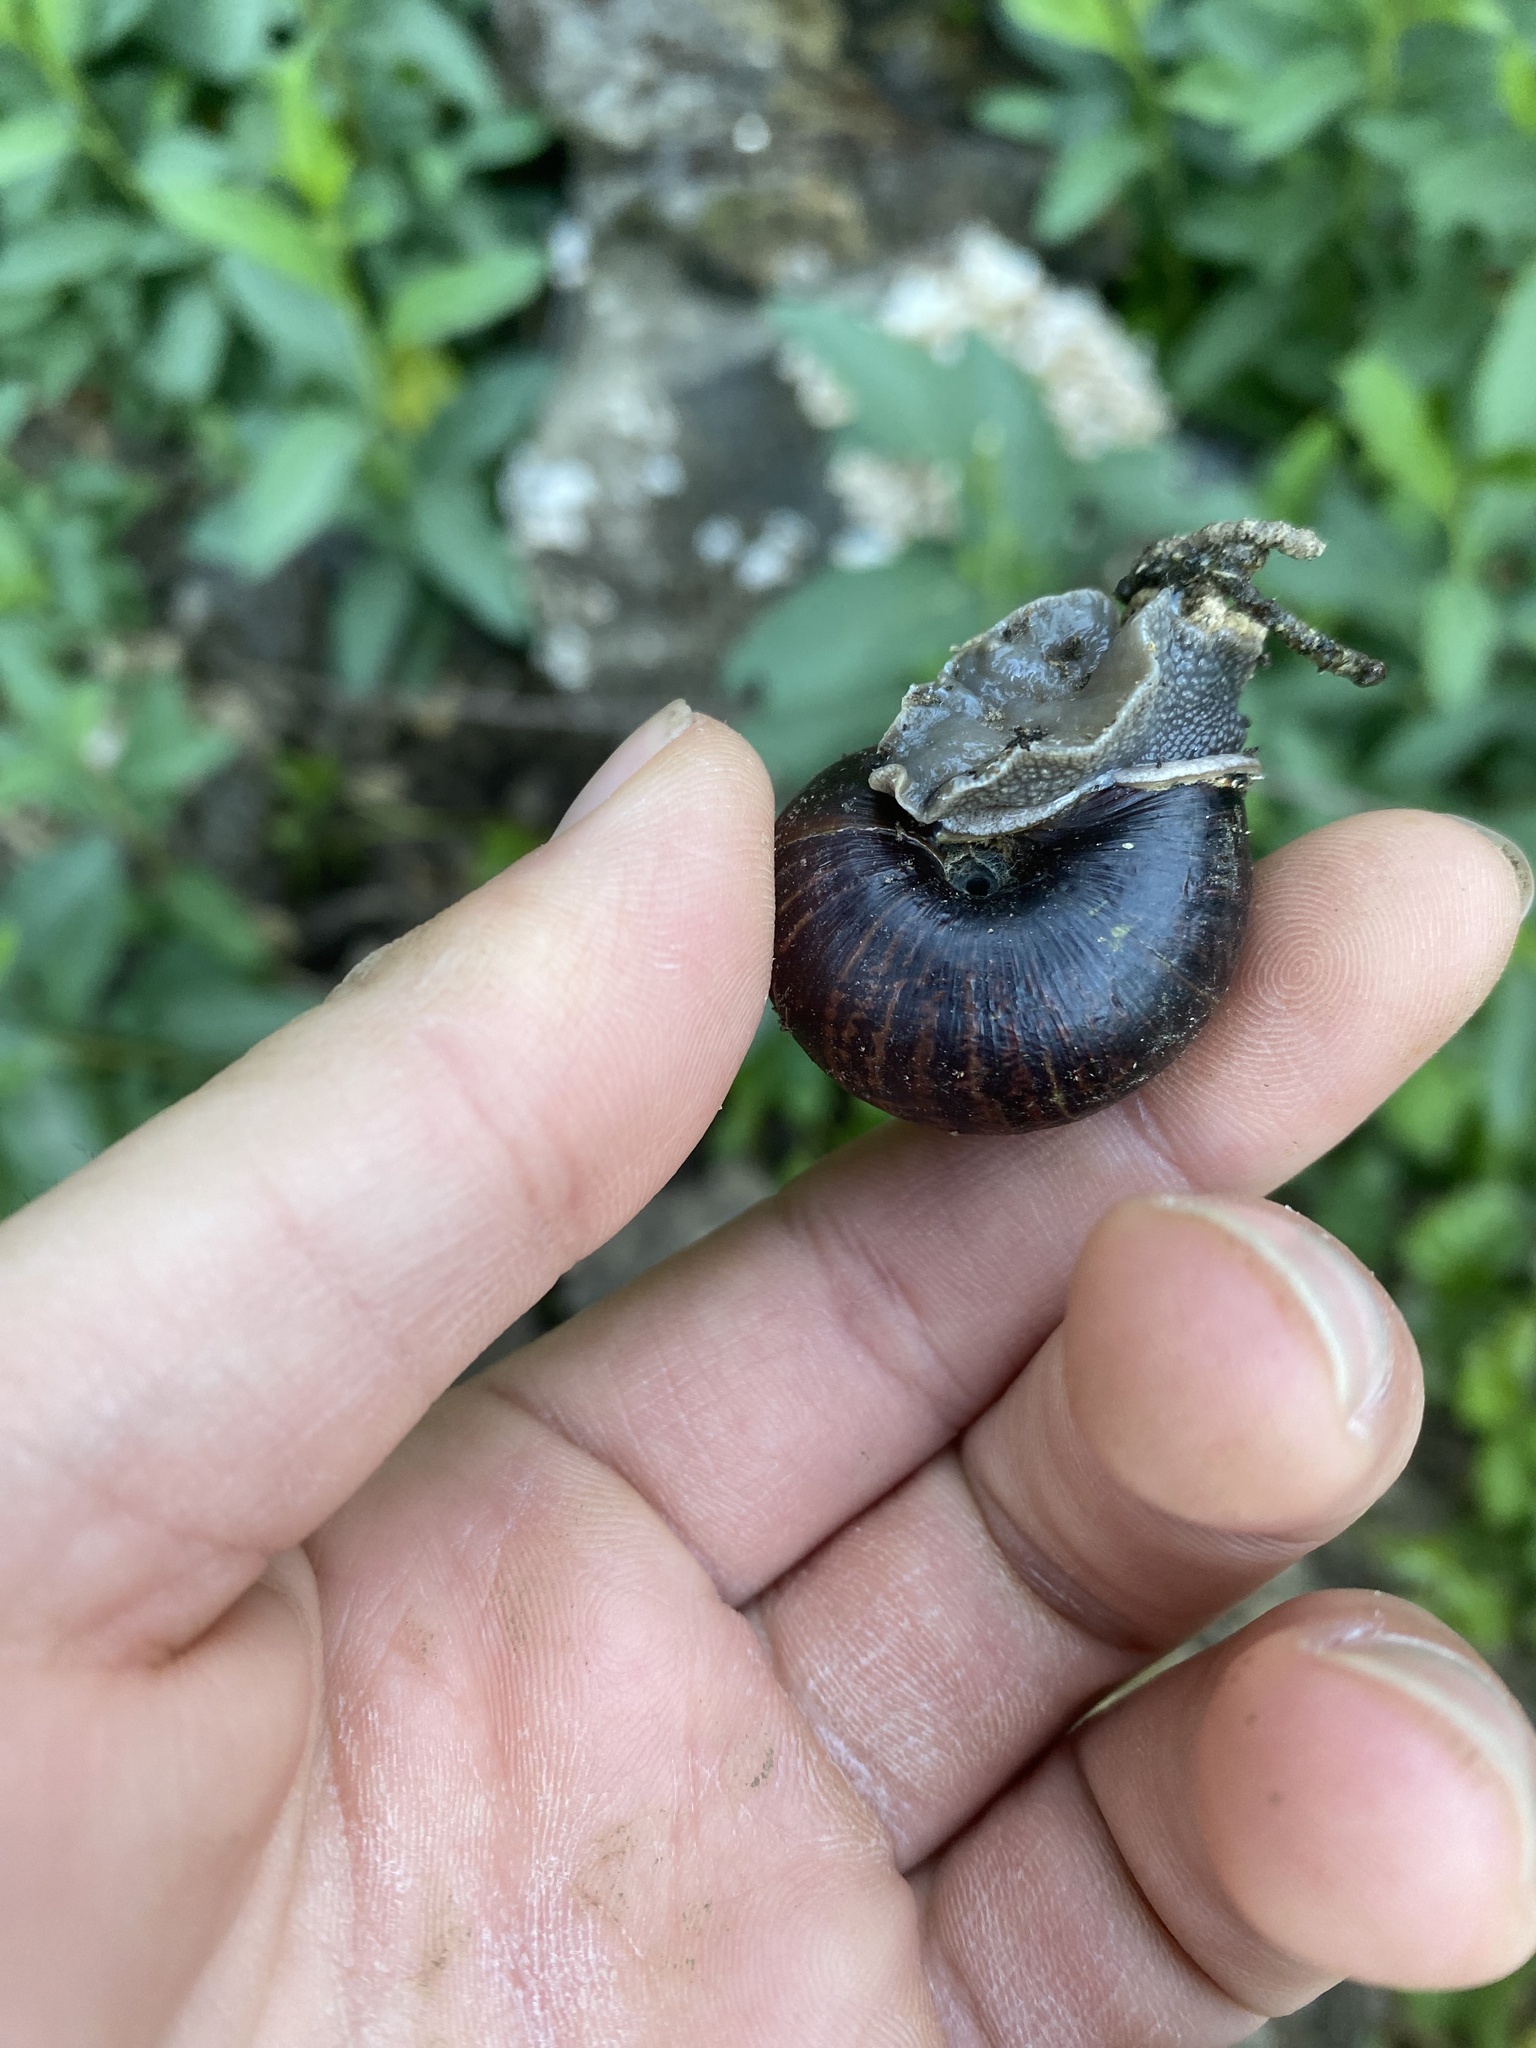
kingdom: Animalia
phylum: Mollusca
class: Gastropoda
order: Stylommatophora
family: Xanthonychidae
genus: Helminthoglypta
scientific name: Helminthoglypta arrosa
